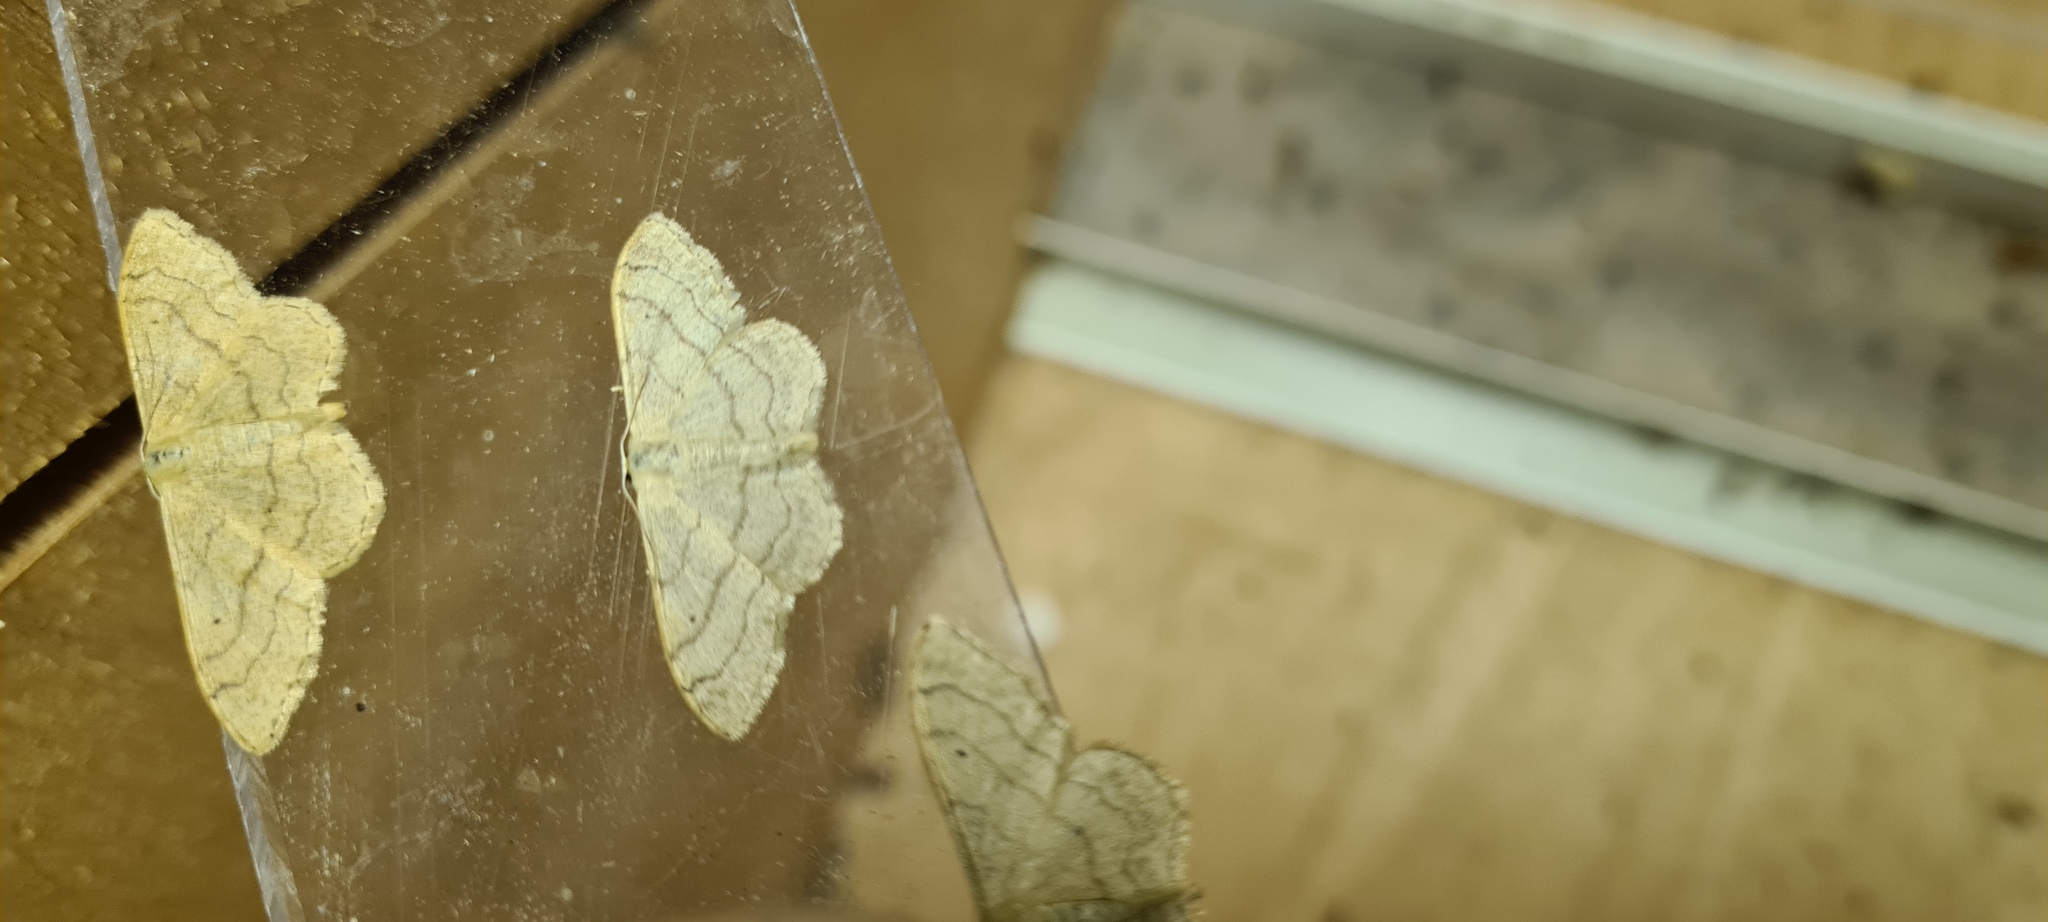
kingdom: Animalia
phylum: Arthropoda
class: Insecta
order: Lepidoptera
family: Geometridae
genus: Idaea
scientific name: Idaea aversata
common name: Riband wave
